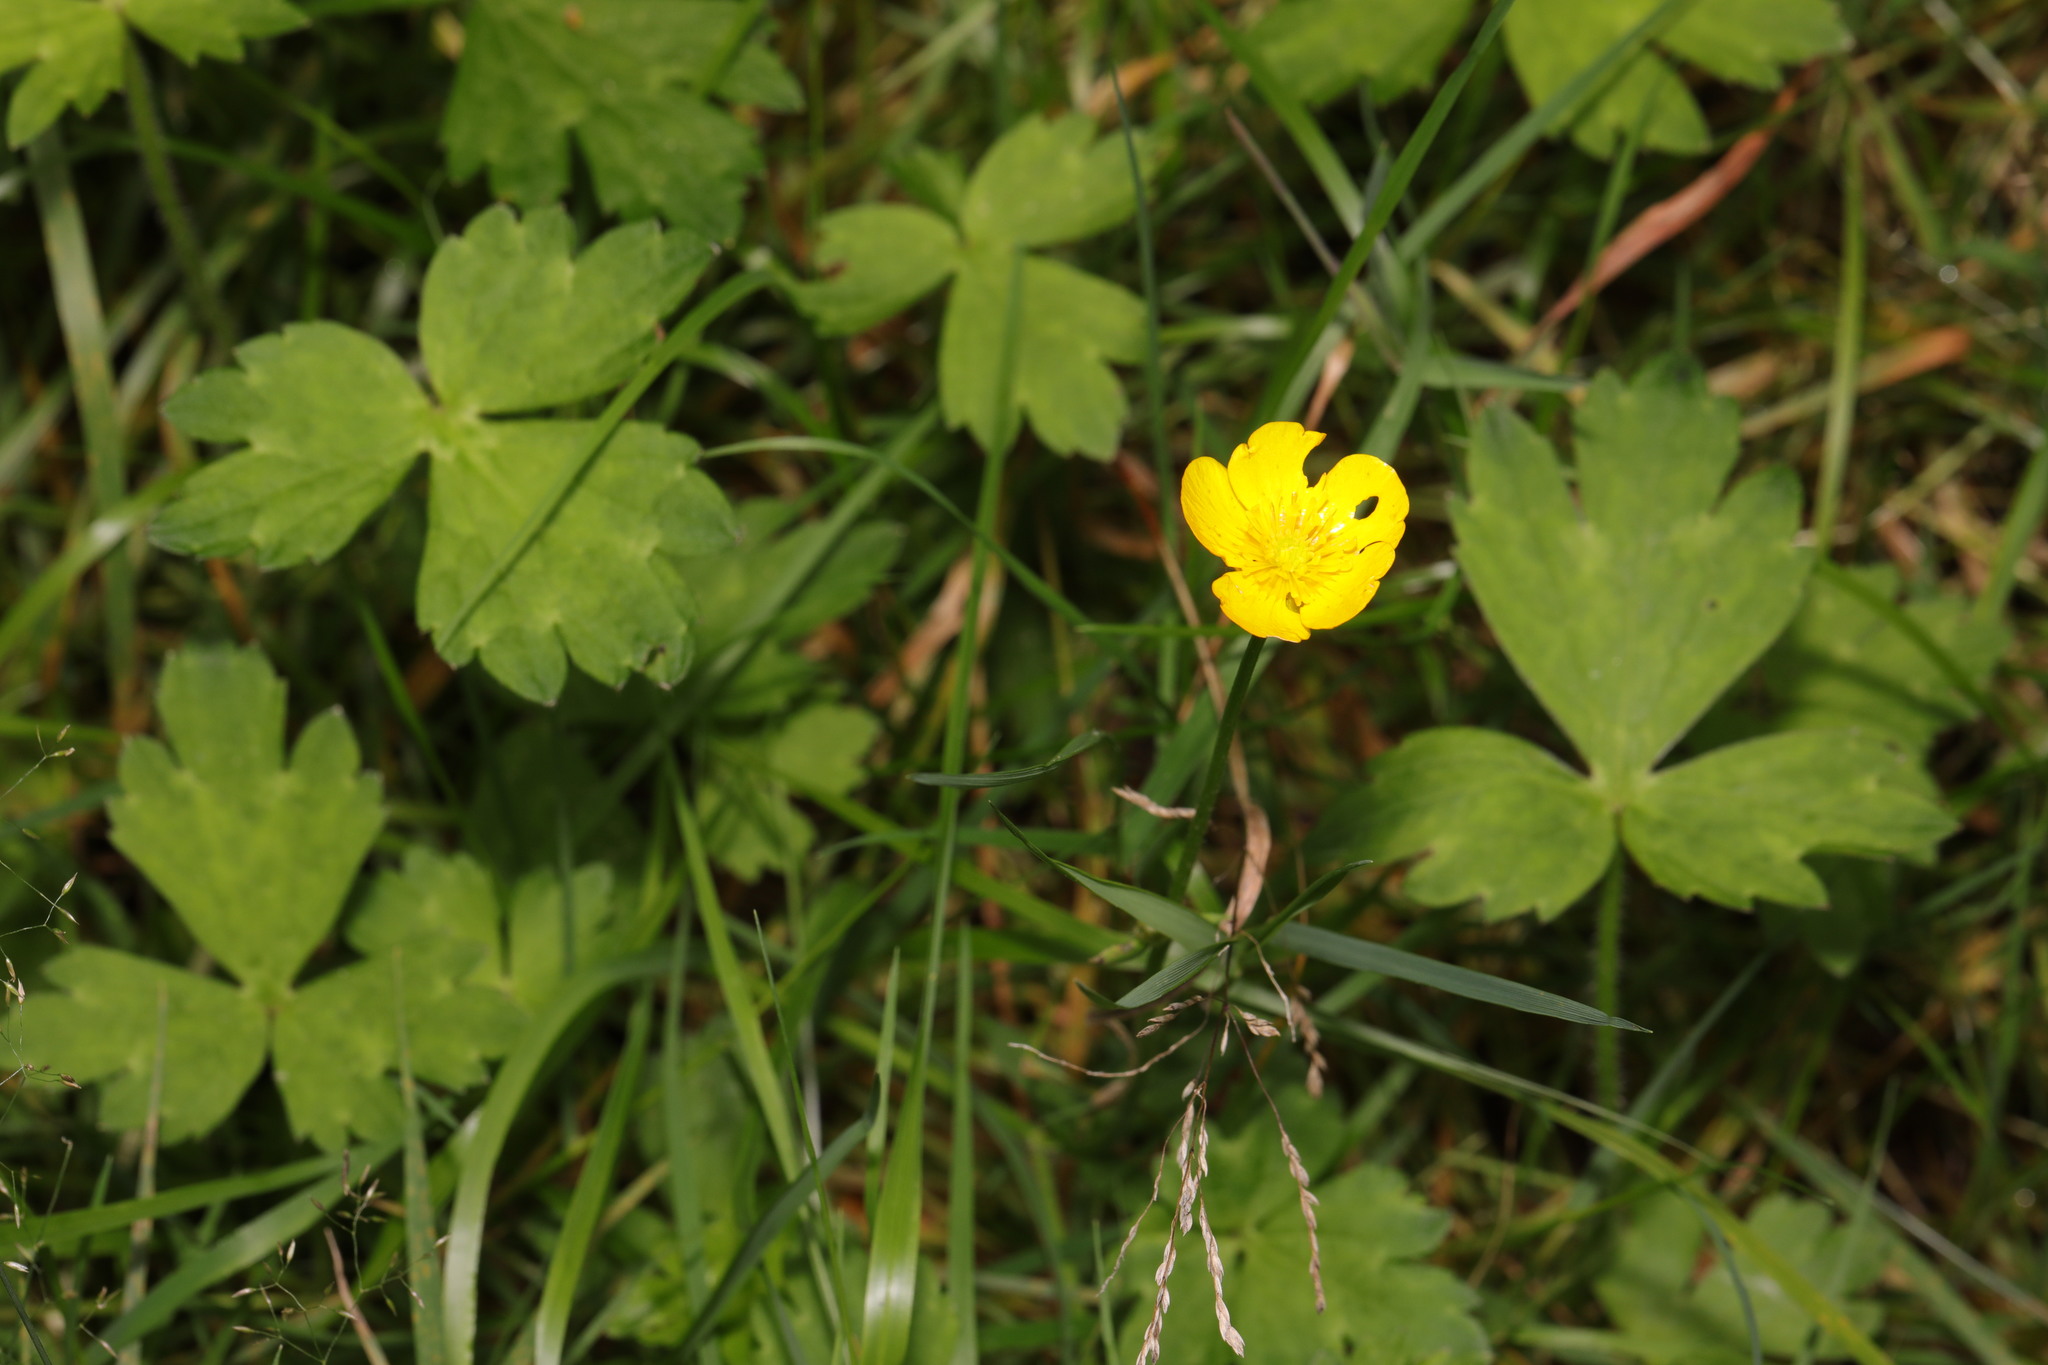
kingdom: Plantae
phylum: Tracheophyta
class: Magnoliopsida
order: Ranunculales
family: Ranunculaceae
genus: Ranunculus
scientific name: Ranunculus repens
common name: Creeping buttercup
